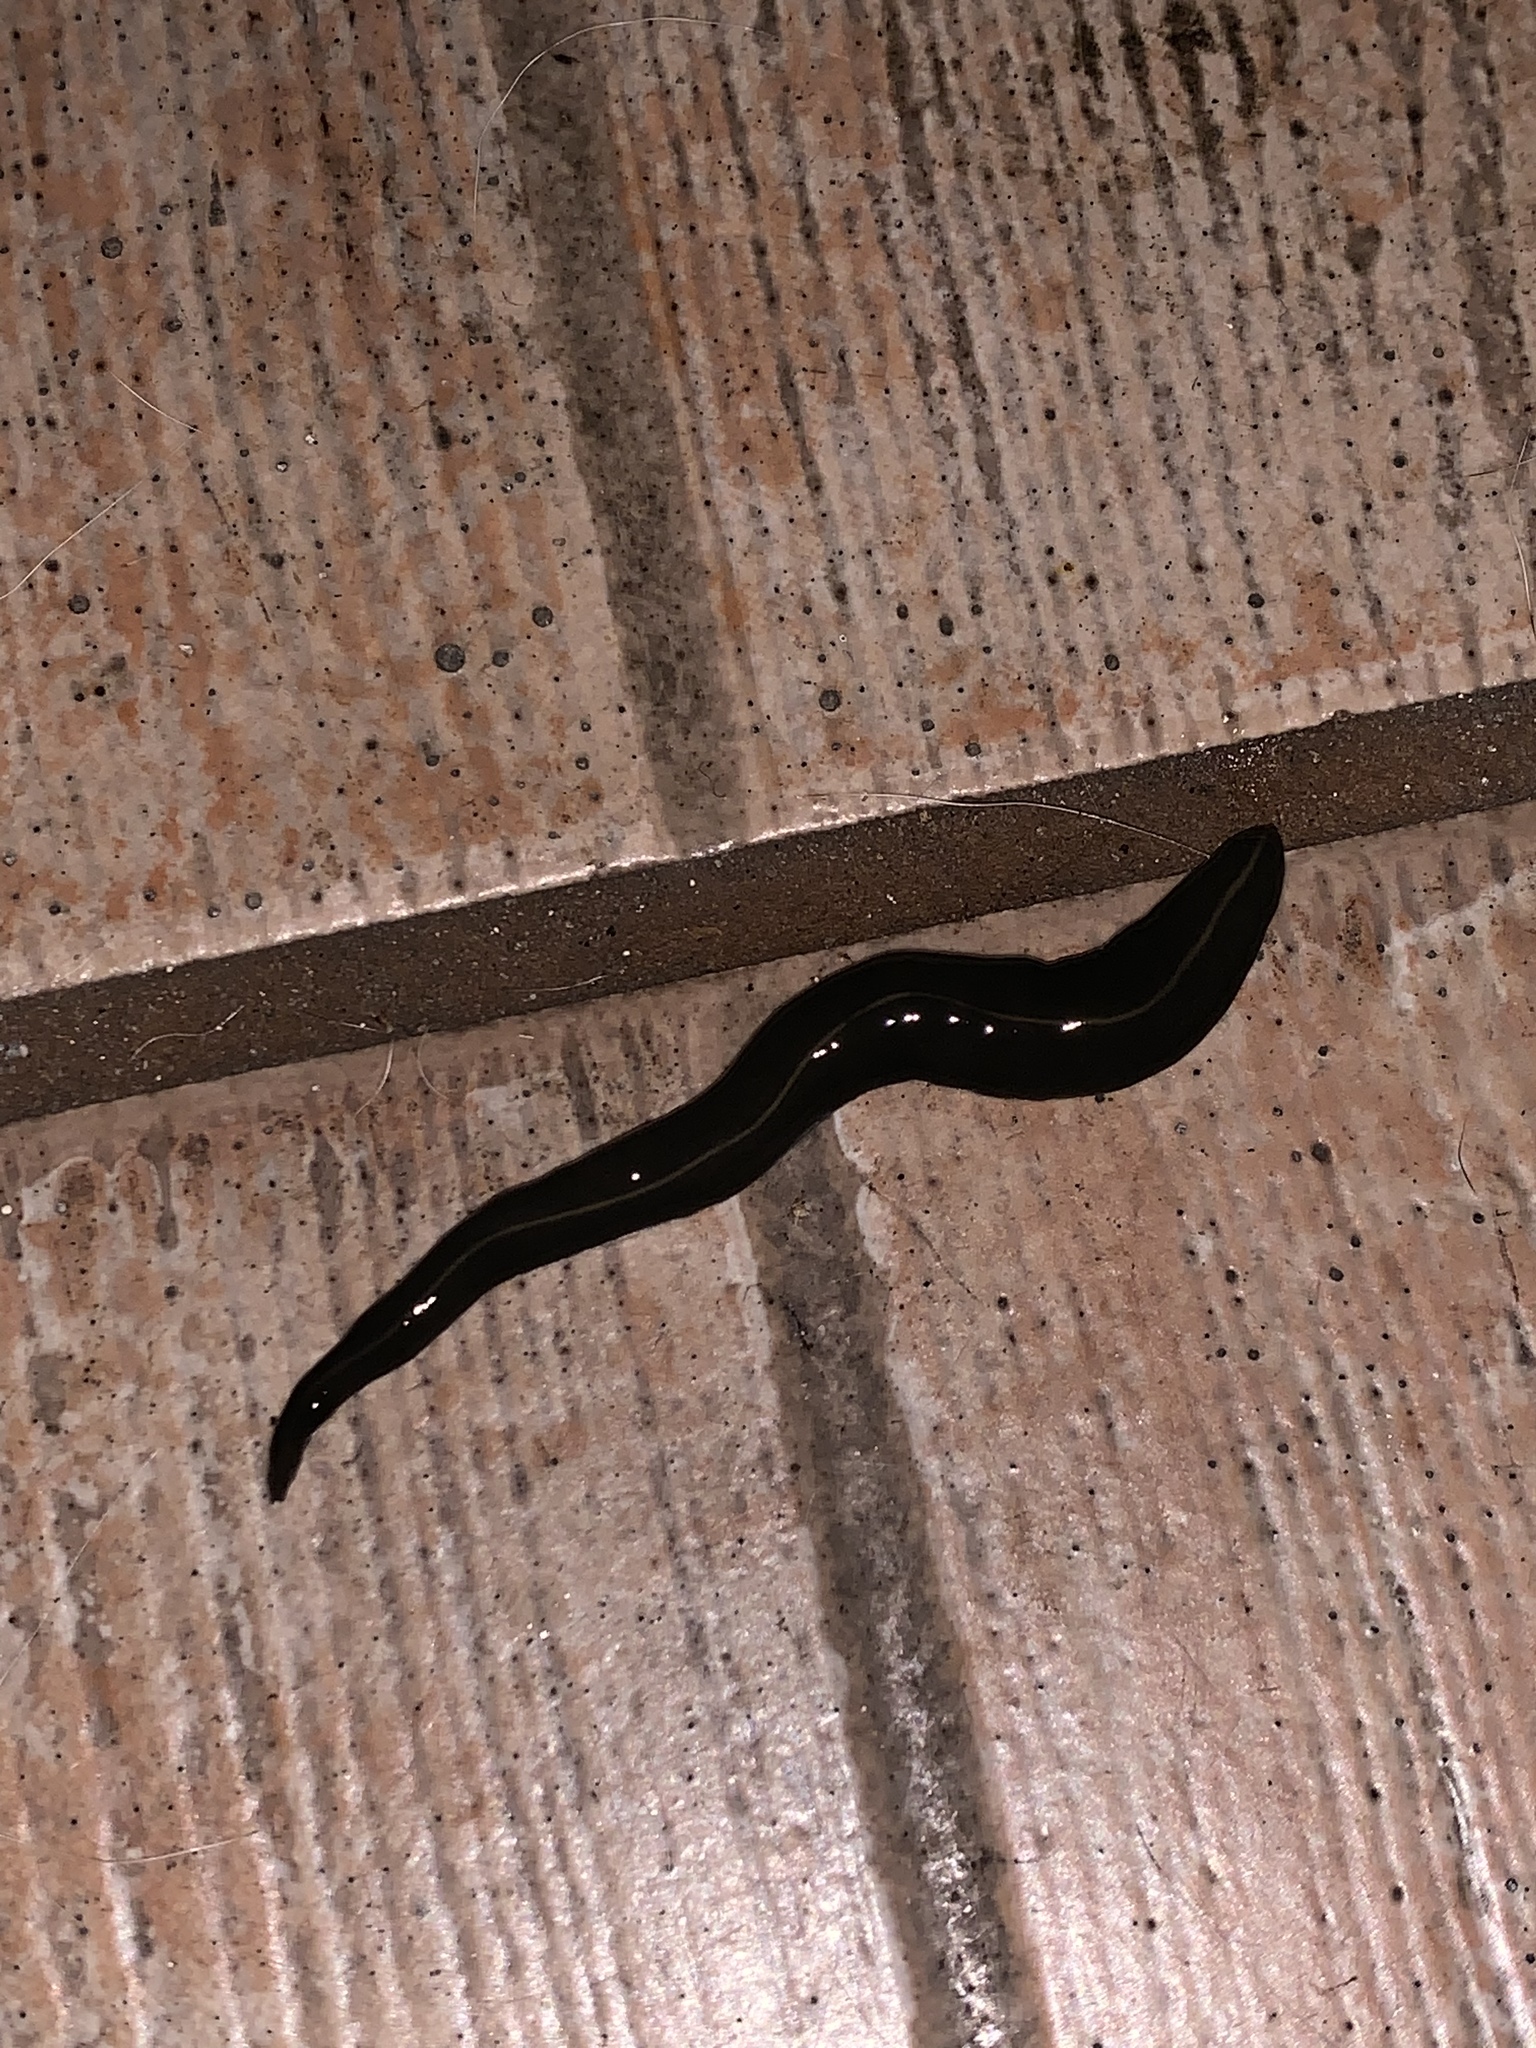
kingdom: Animalia
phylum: Platyhelminthes
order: Tricladida
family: Geoplanidae
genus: Platydemus
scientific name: Platydemus manokwari
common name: New guinea flatworm
